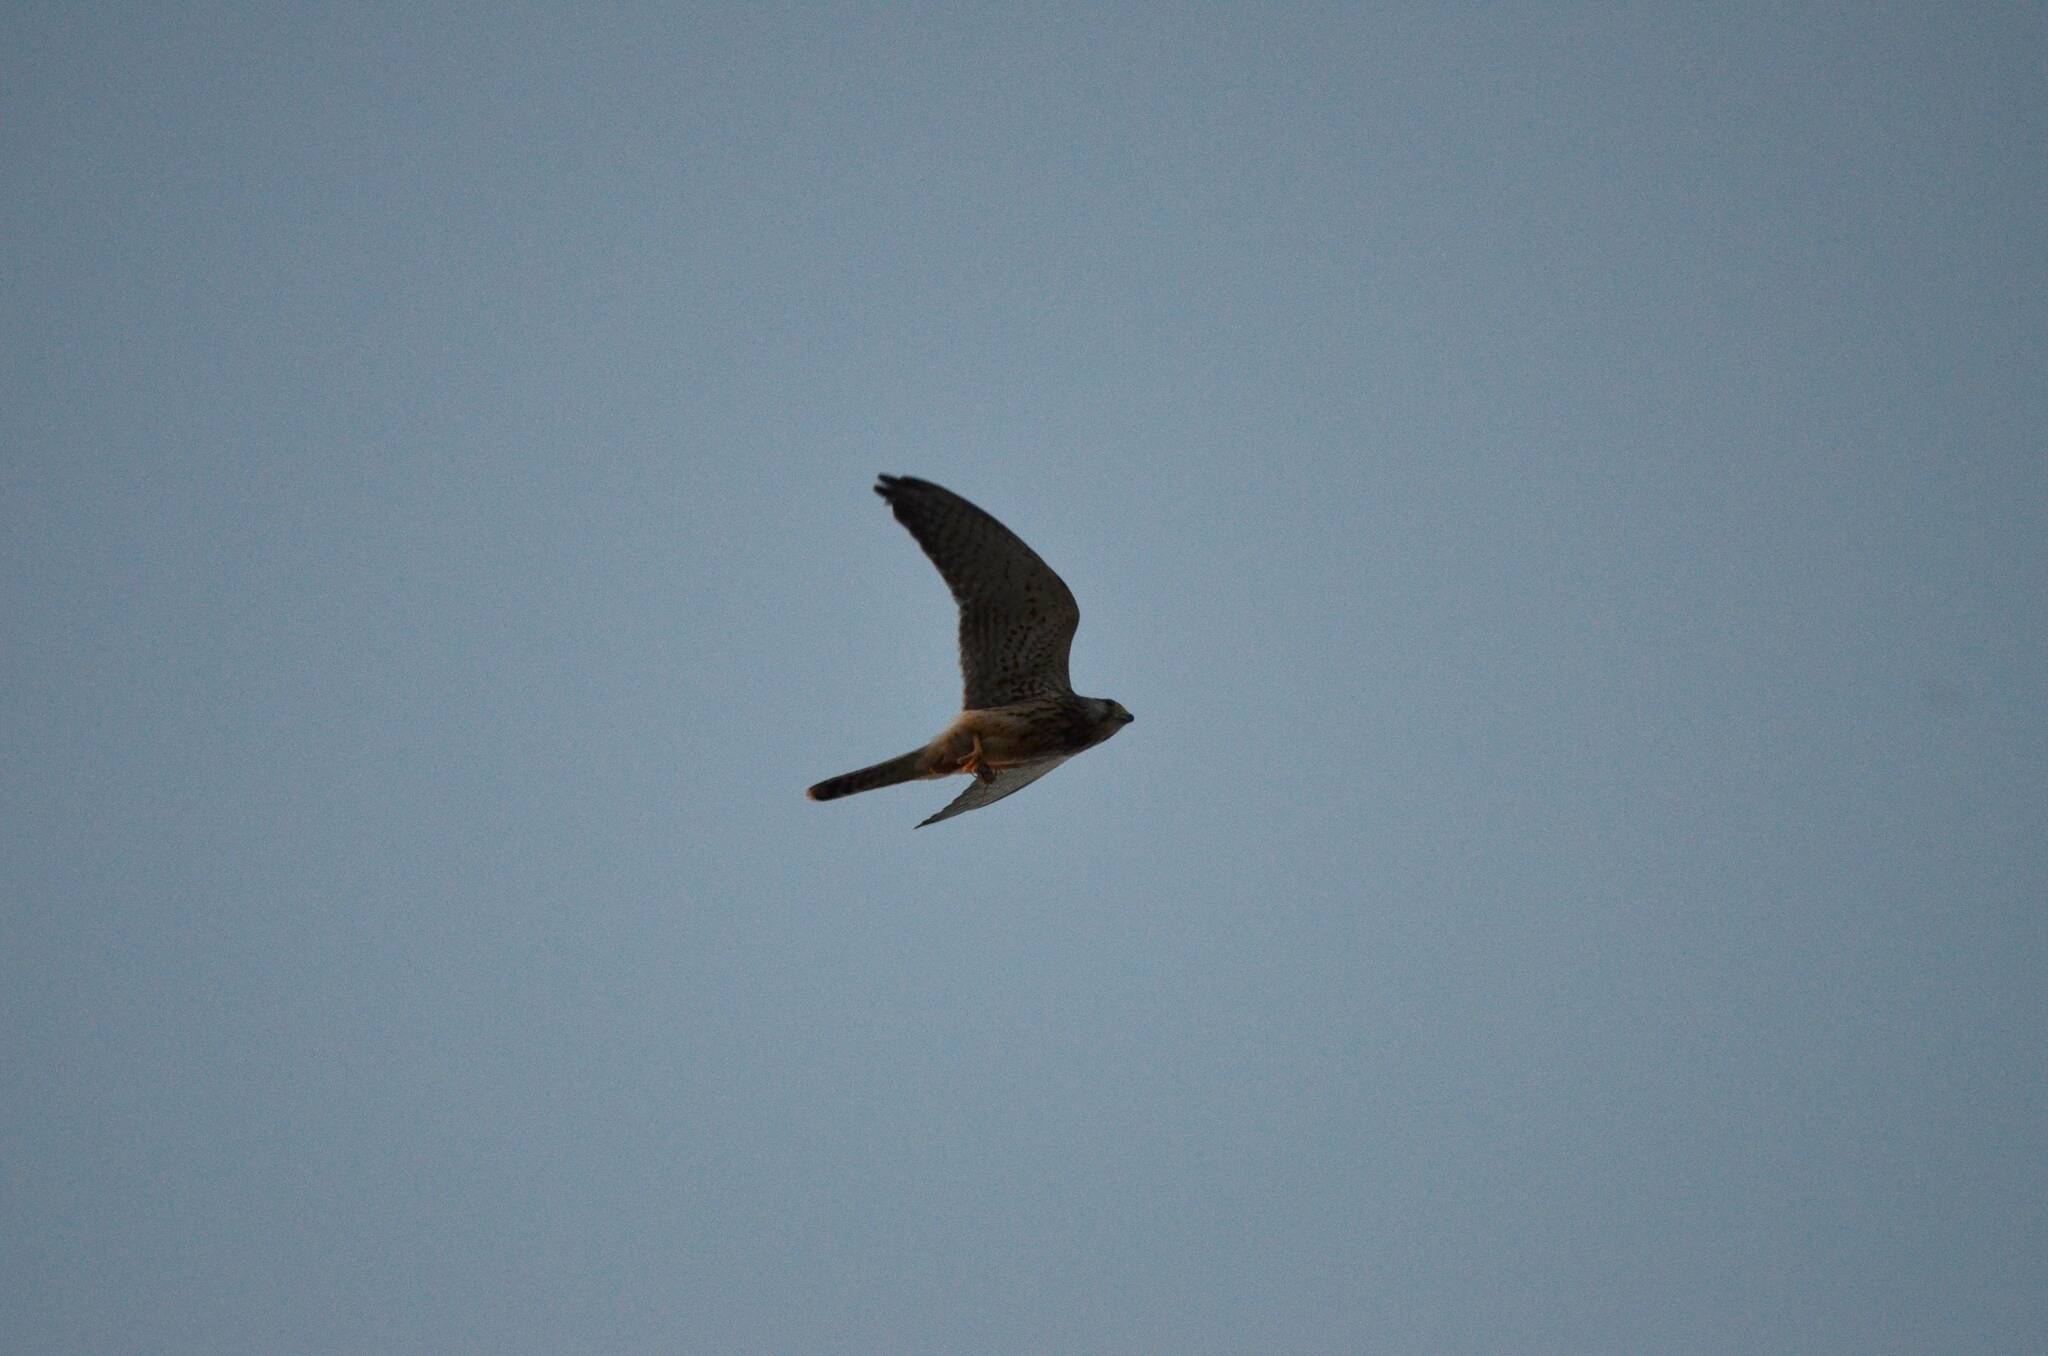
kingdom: Animalia
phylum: Chordata
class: Aves
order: Falconiformes
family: Falconidae
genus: Falco
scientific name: Falco tinnunculus
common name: Common kestrel
